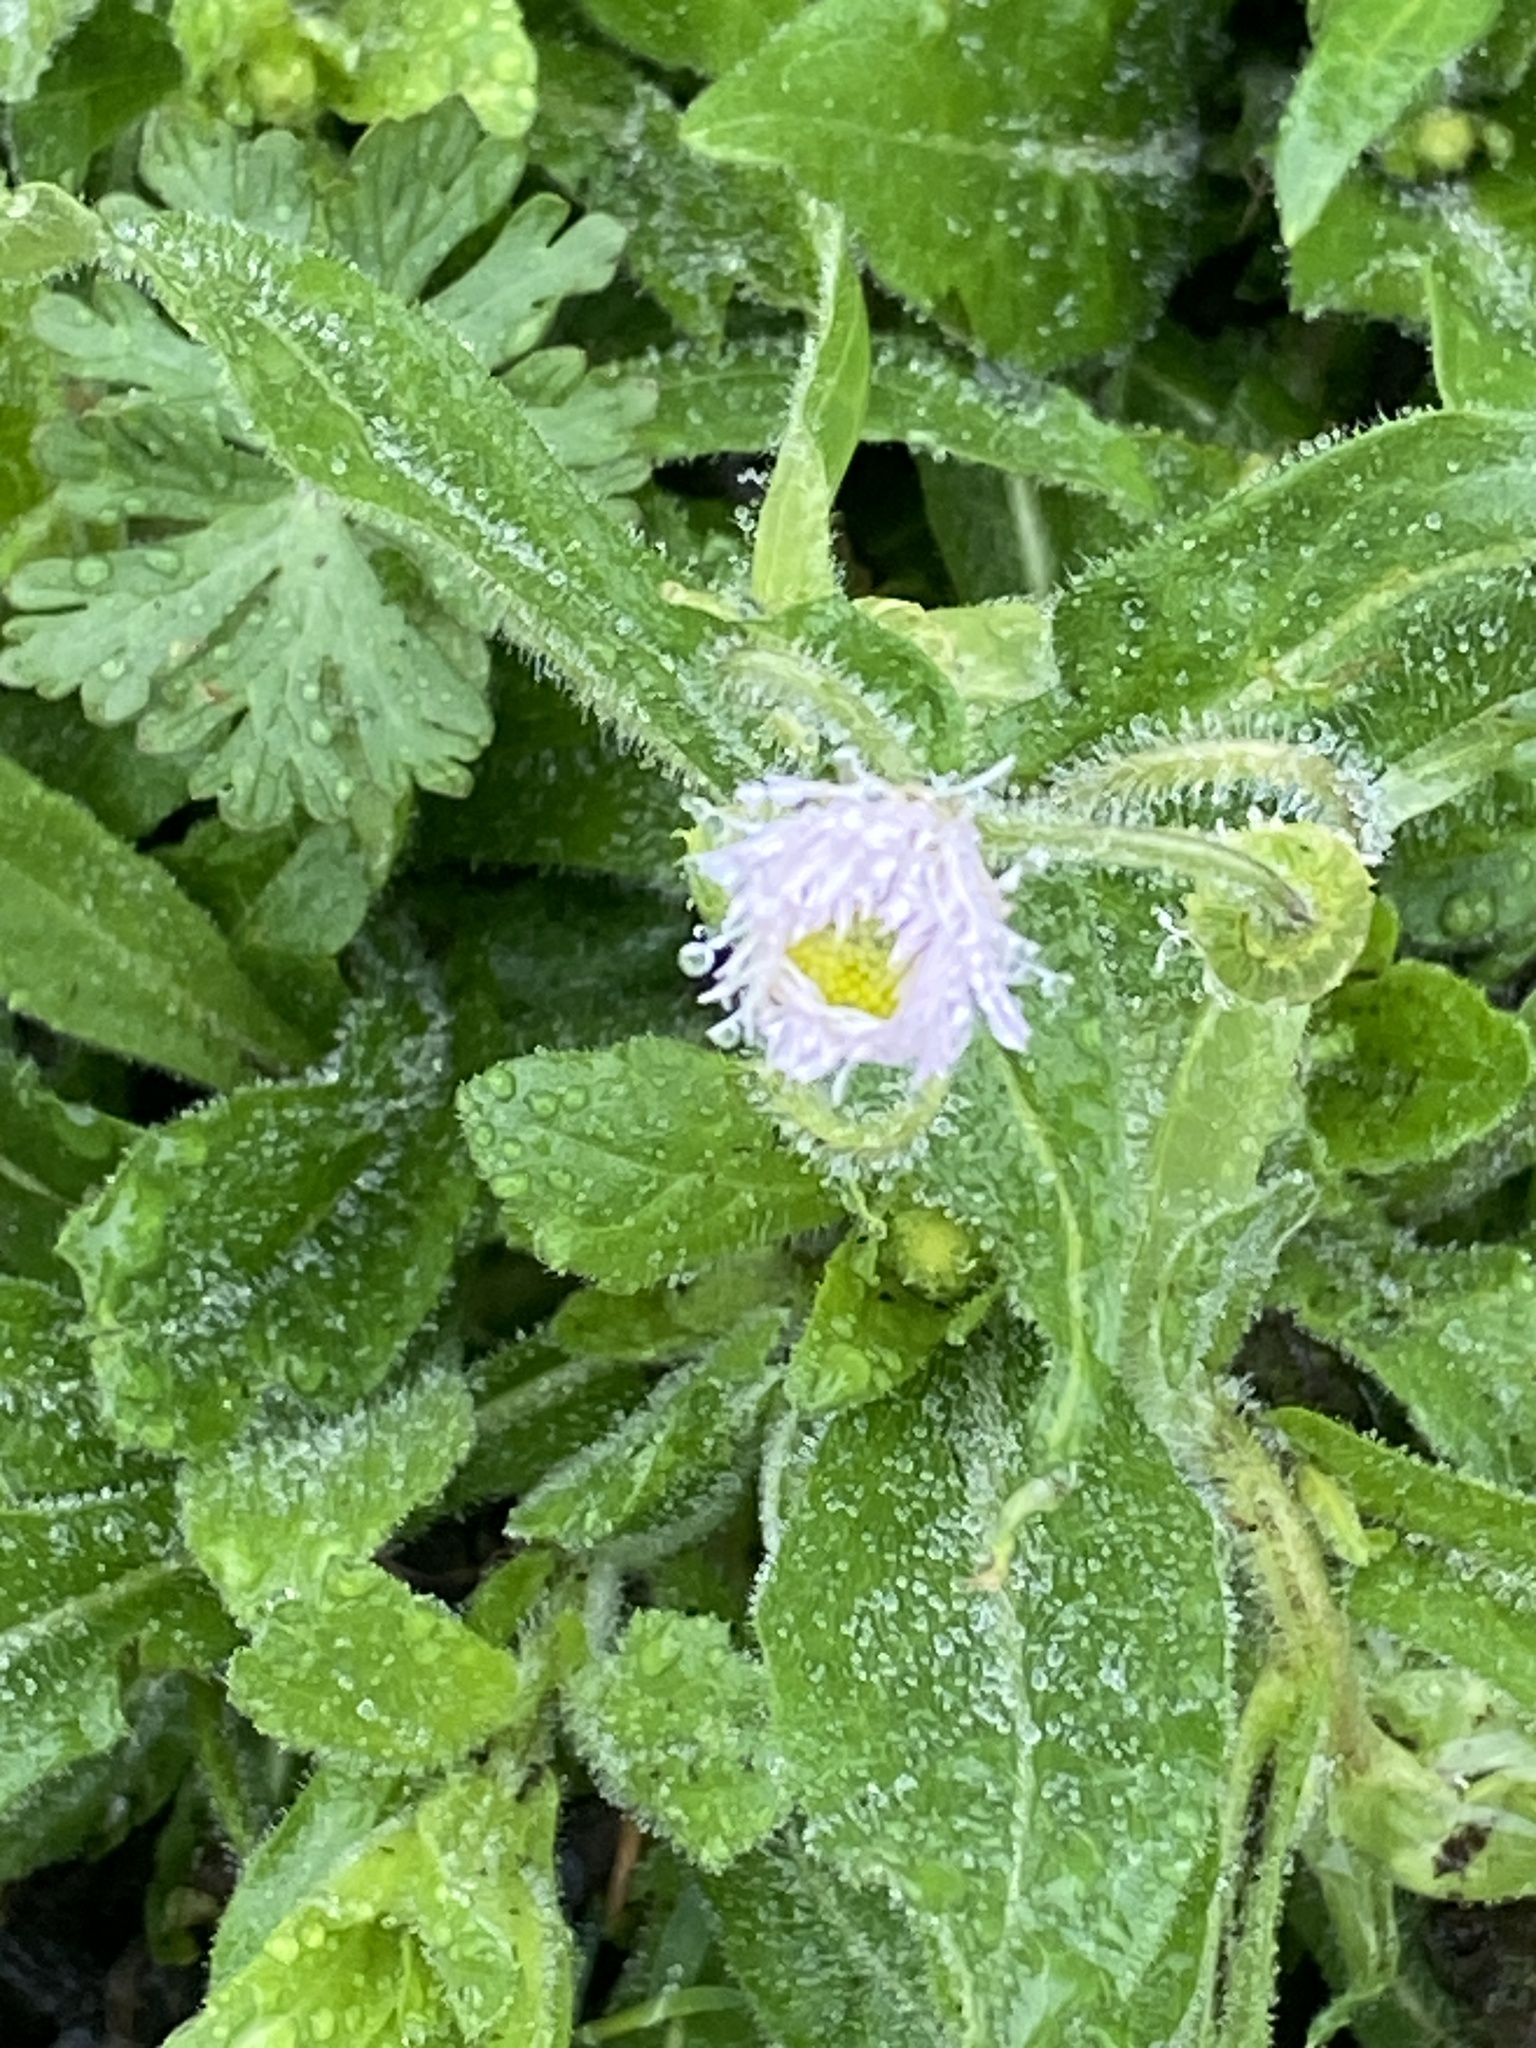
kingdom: Plantae
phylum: Tracheophyta
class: Magnoliopsida
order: Asterales
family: Asteraceae
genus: Erigeron
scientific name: Erigeron philadelphicus
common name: Robin's-plantain
